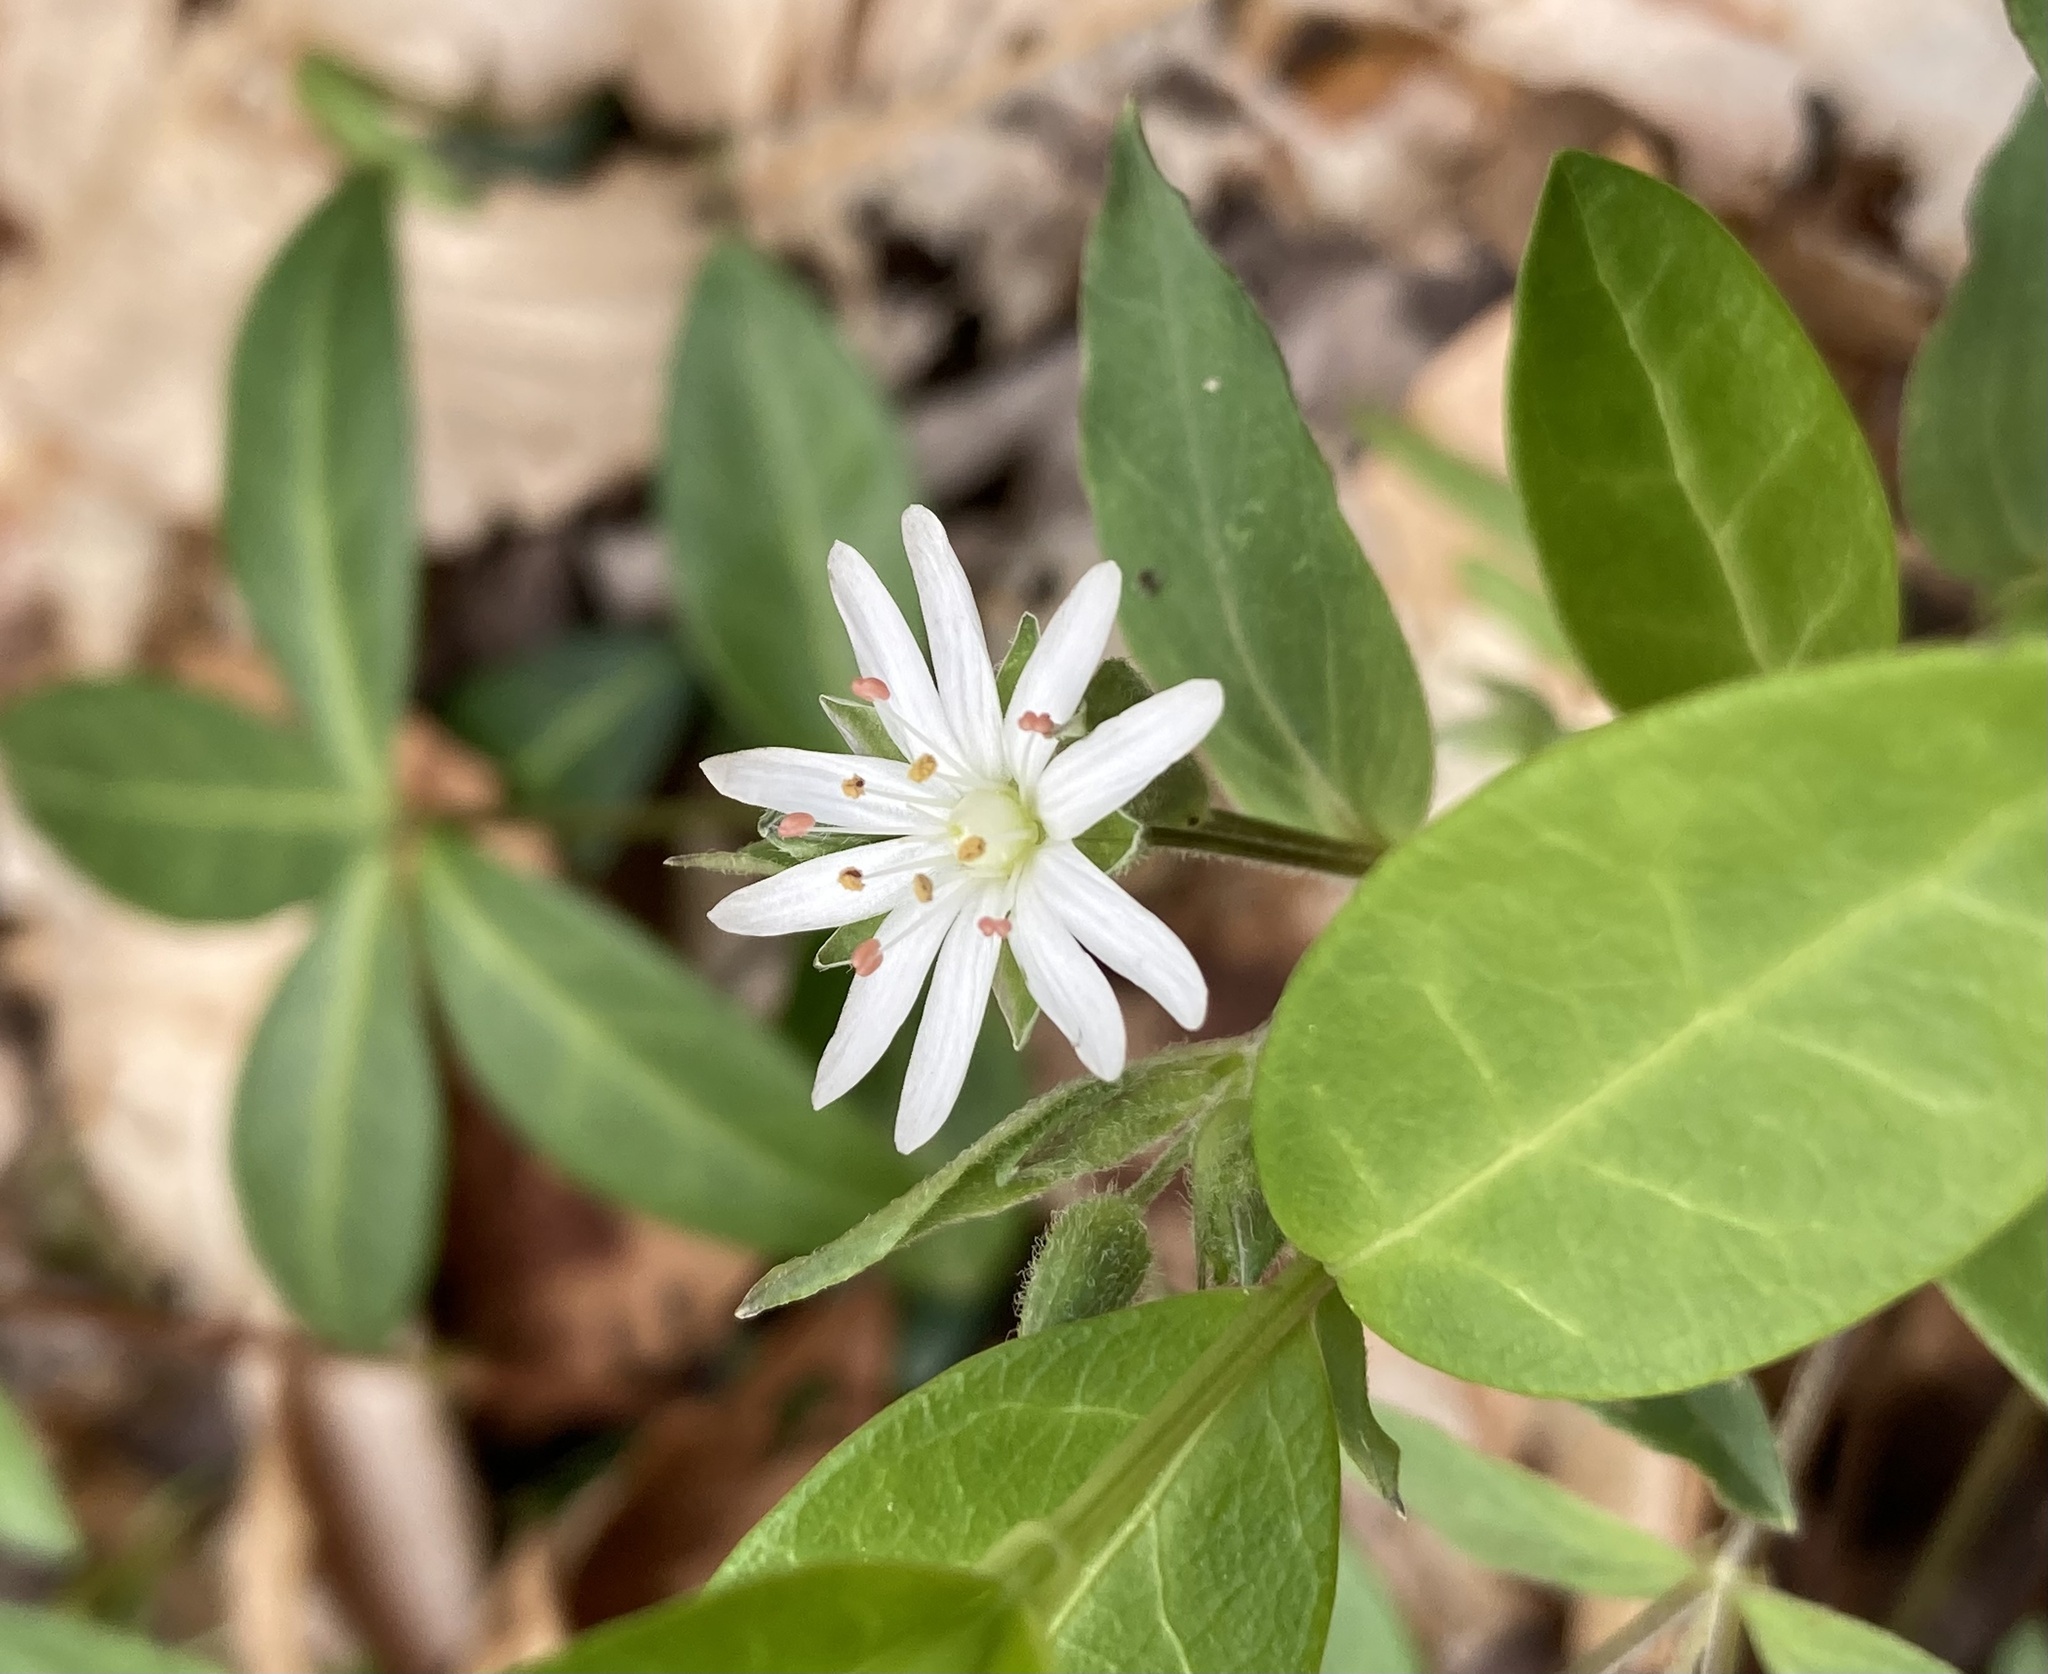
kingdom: Plantae
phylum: Tracheophyta
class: Magnoliopsida
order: Caryophyllales
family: Caryophyllaceae
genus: Stellaria
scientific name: Stellaria pubera
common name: Star chickweed
